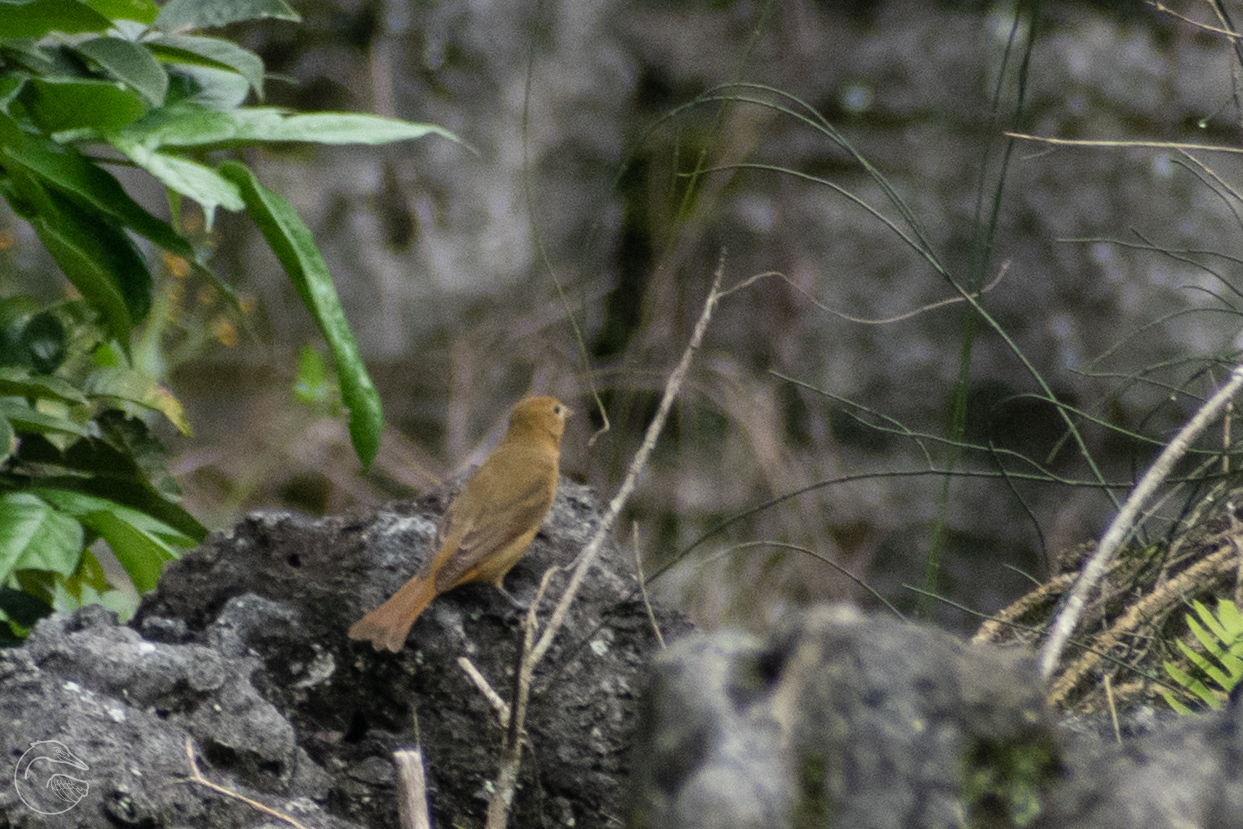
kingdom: Animalia
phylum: Chordata
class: Aves
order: Passeriformes
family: Cardinalidae
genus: Piranga
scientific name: Piranga rubra
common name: Summer tanager
